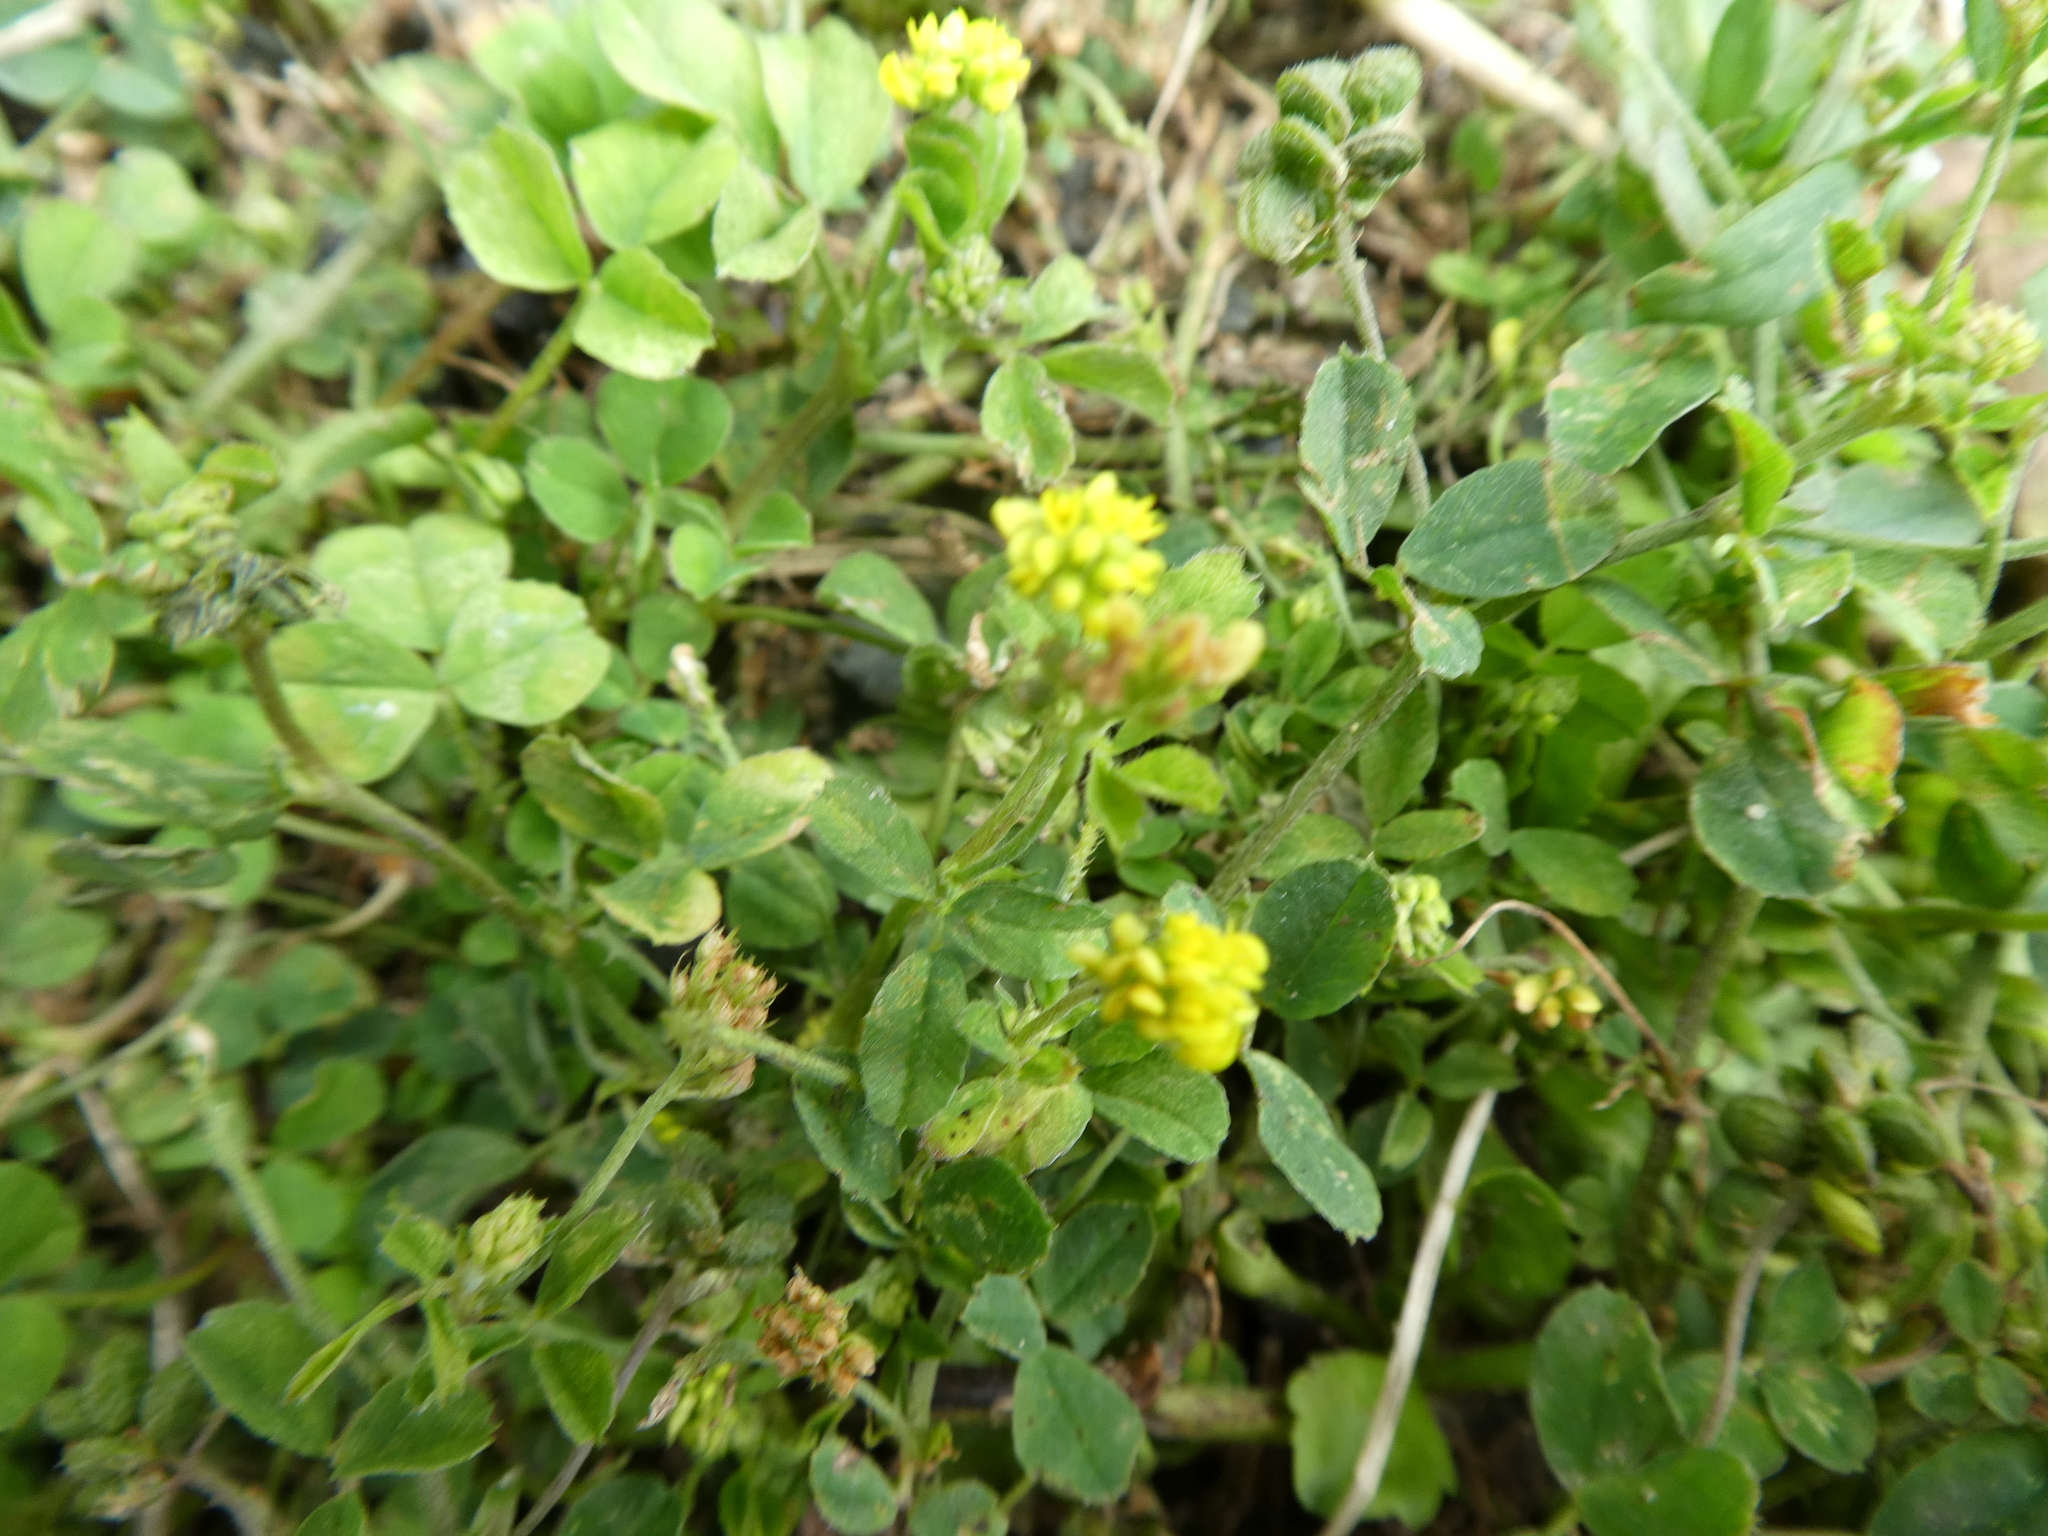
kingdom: Plantae
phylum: Tracheophyta
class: Magnoliopsida
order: Fabales
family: Fabaceae
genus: Medicago
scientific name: Medicago lupulina
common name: Black medick
